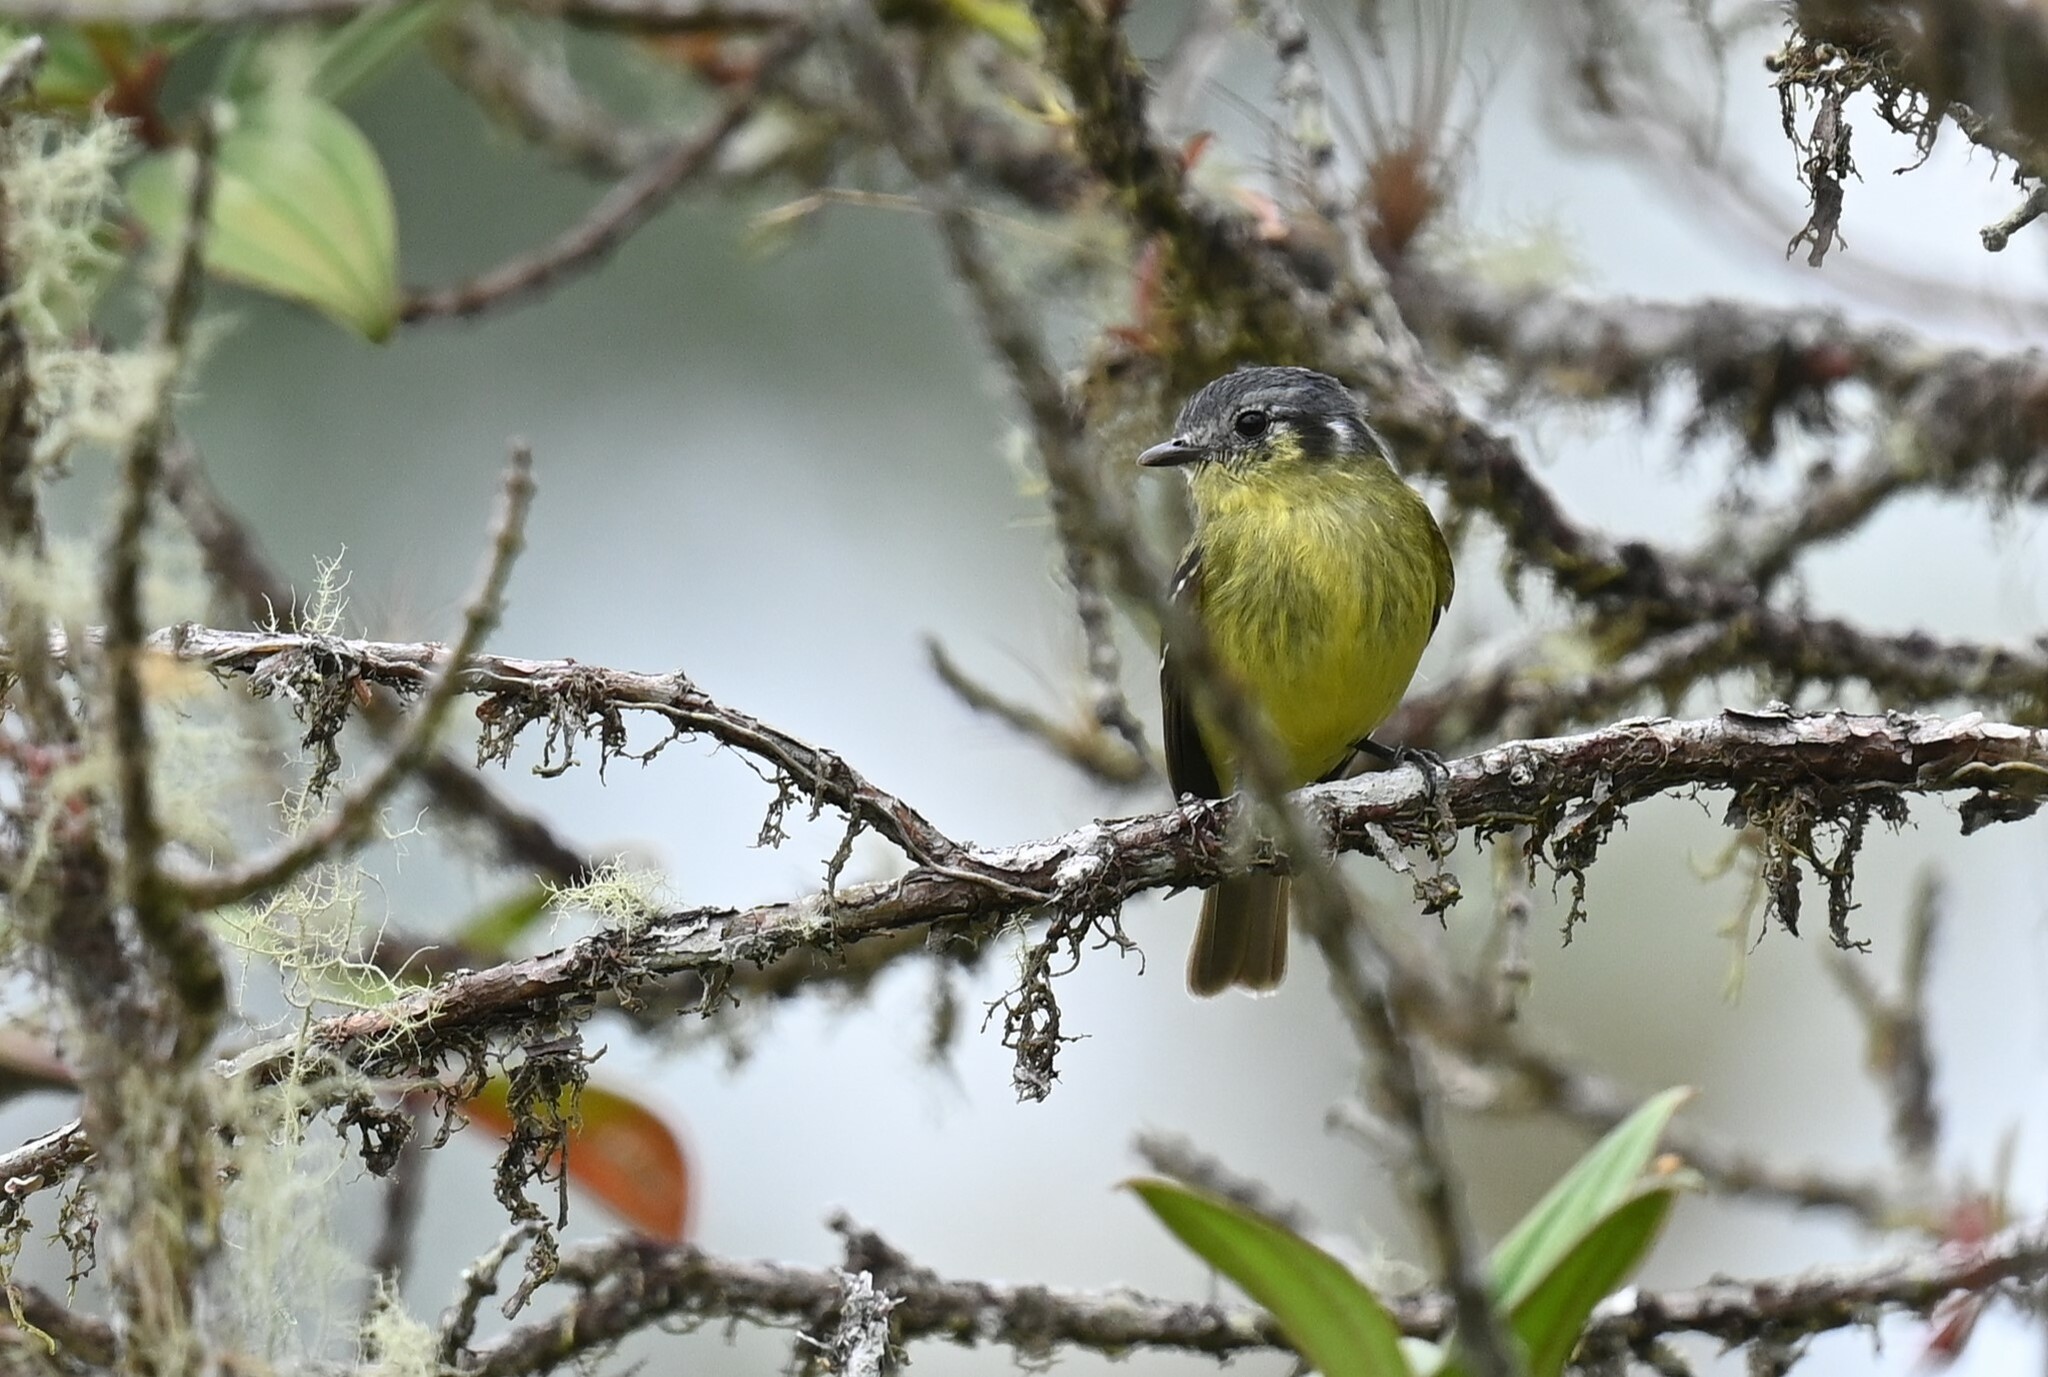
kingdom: Animalia
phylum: Chordata
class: Aves
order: Passeriformes
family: Tyrannidae
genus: Phyllomyias
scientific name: Phyllomyias cinereiceps
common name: Ashy-headed tyrannulet
